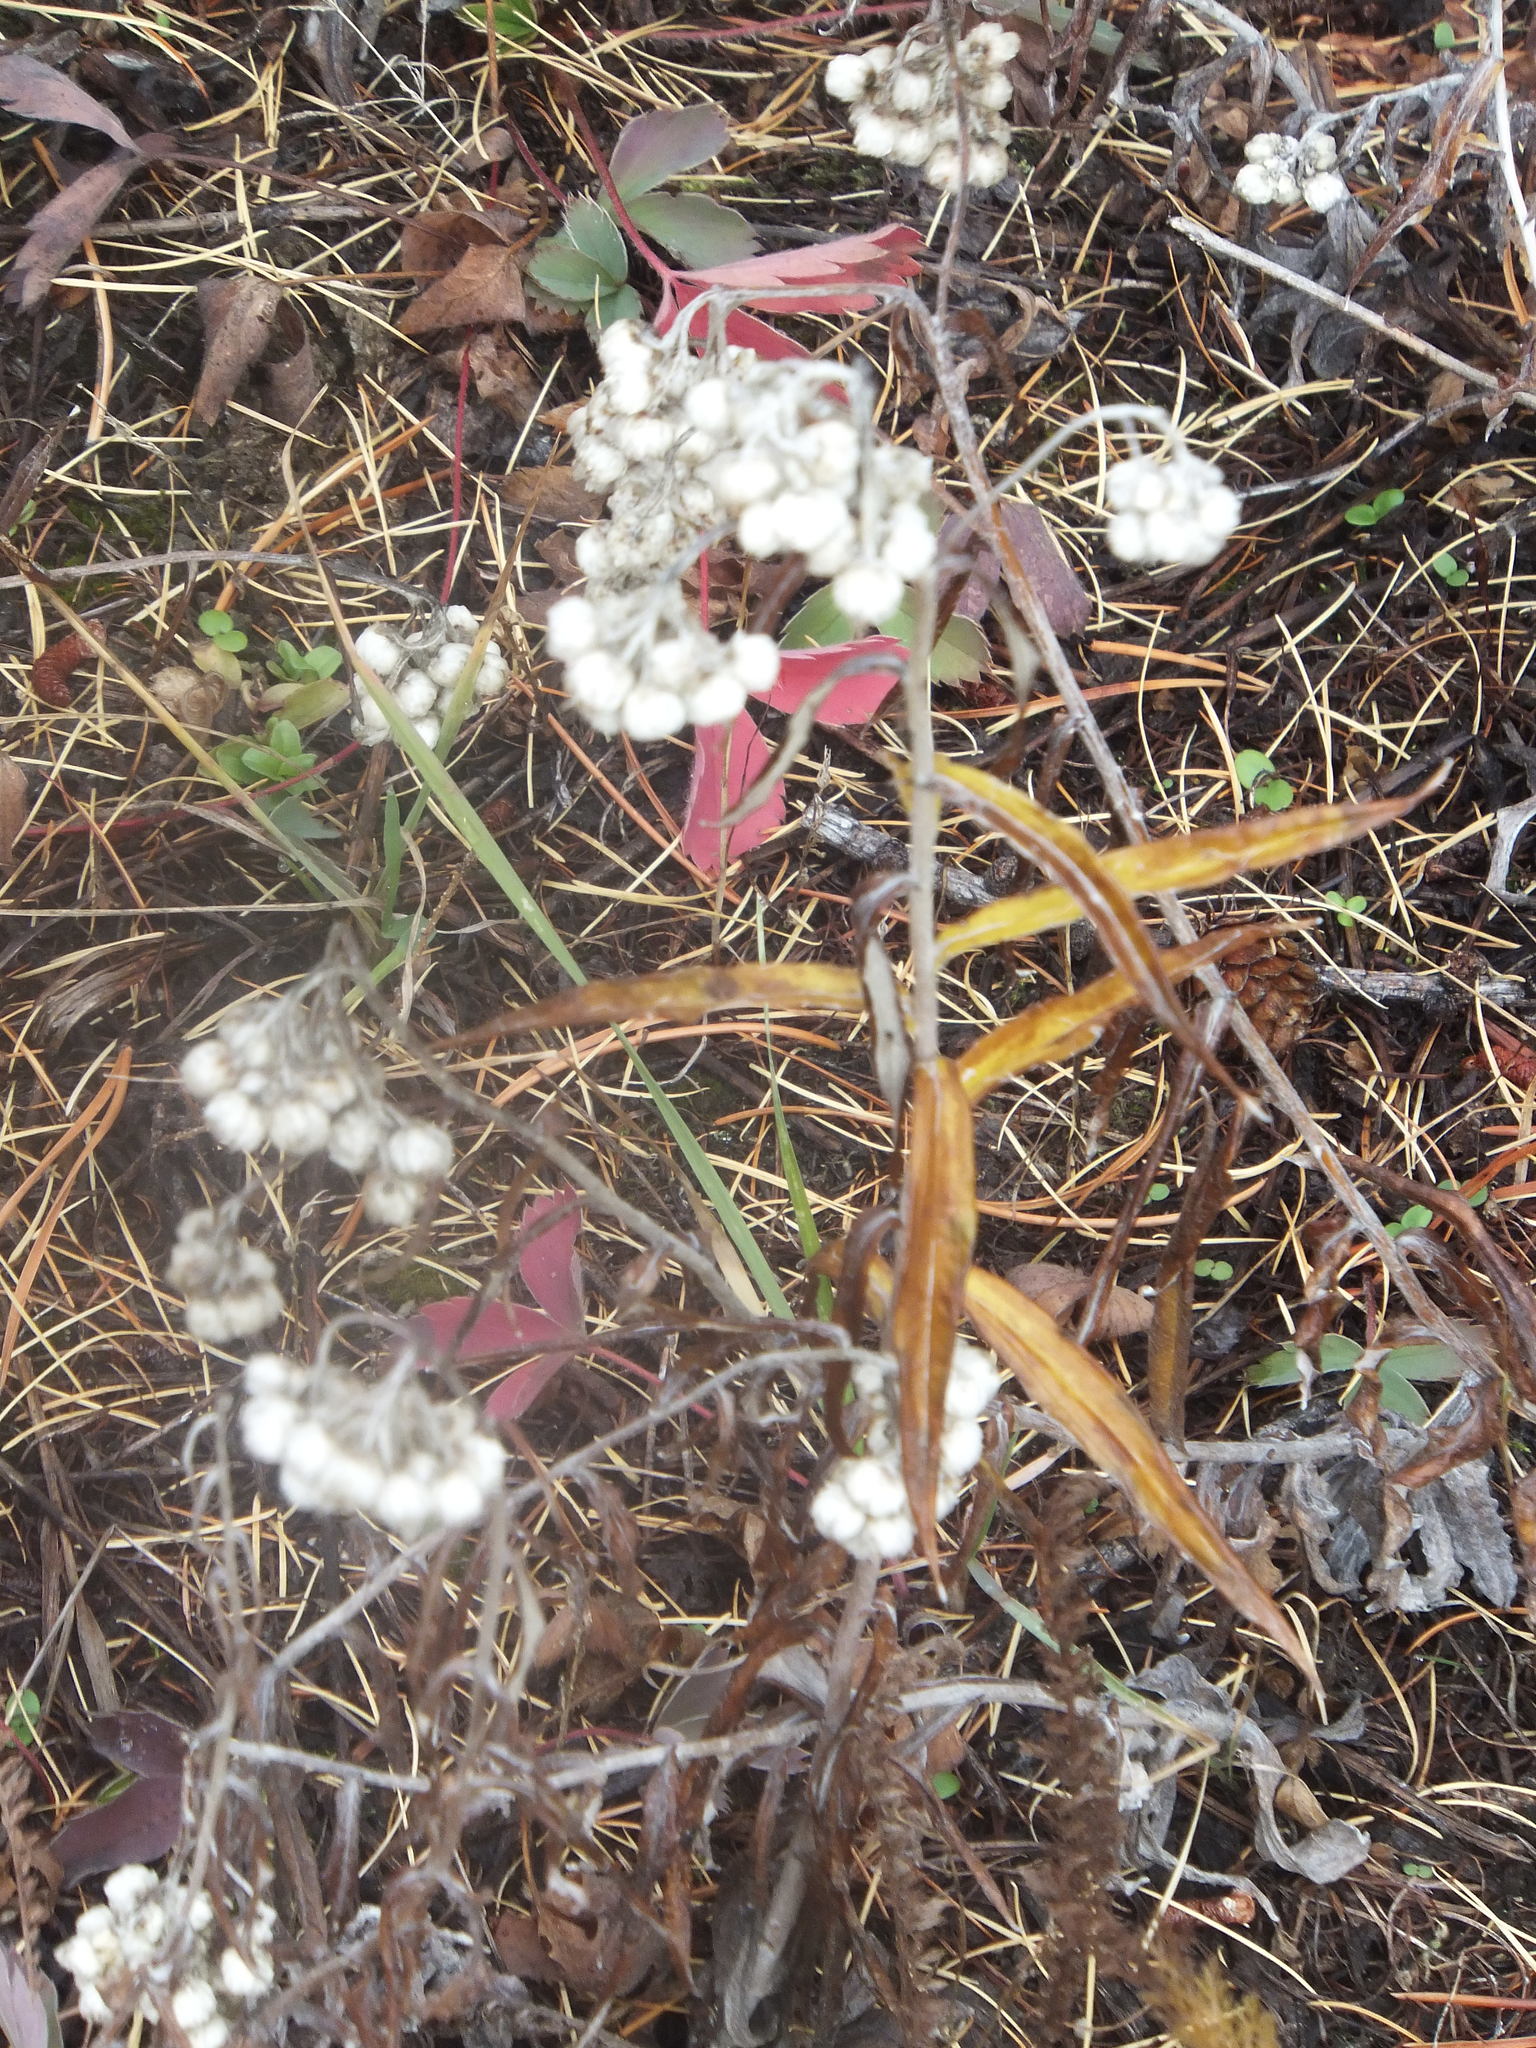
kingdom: Plantae
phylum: Tracheophyta
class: Magnoliopsida
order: Asterales
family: Asteraceae
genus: Anaphalis
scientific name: Anaphalis margaritacea
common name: Pearly everlasting
